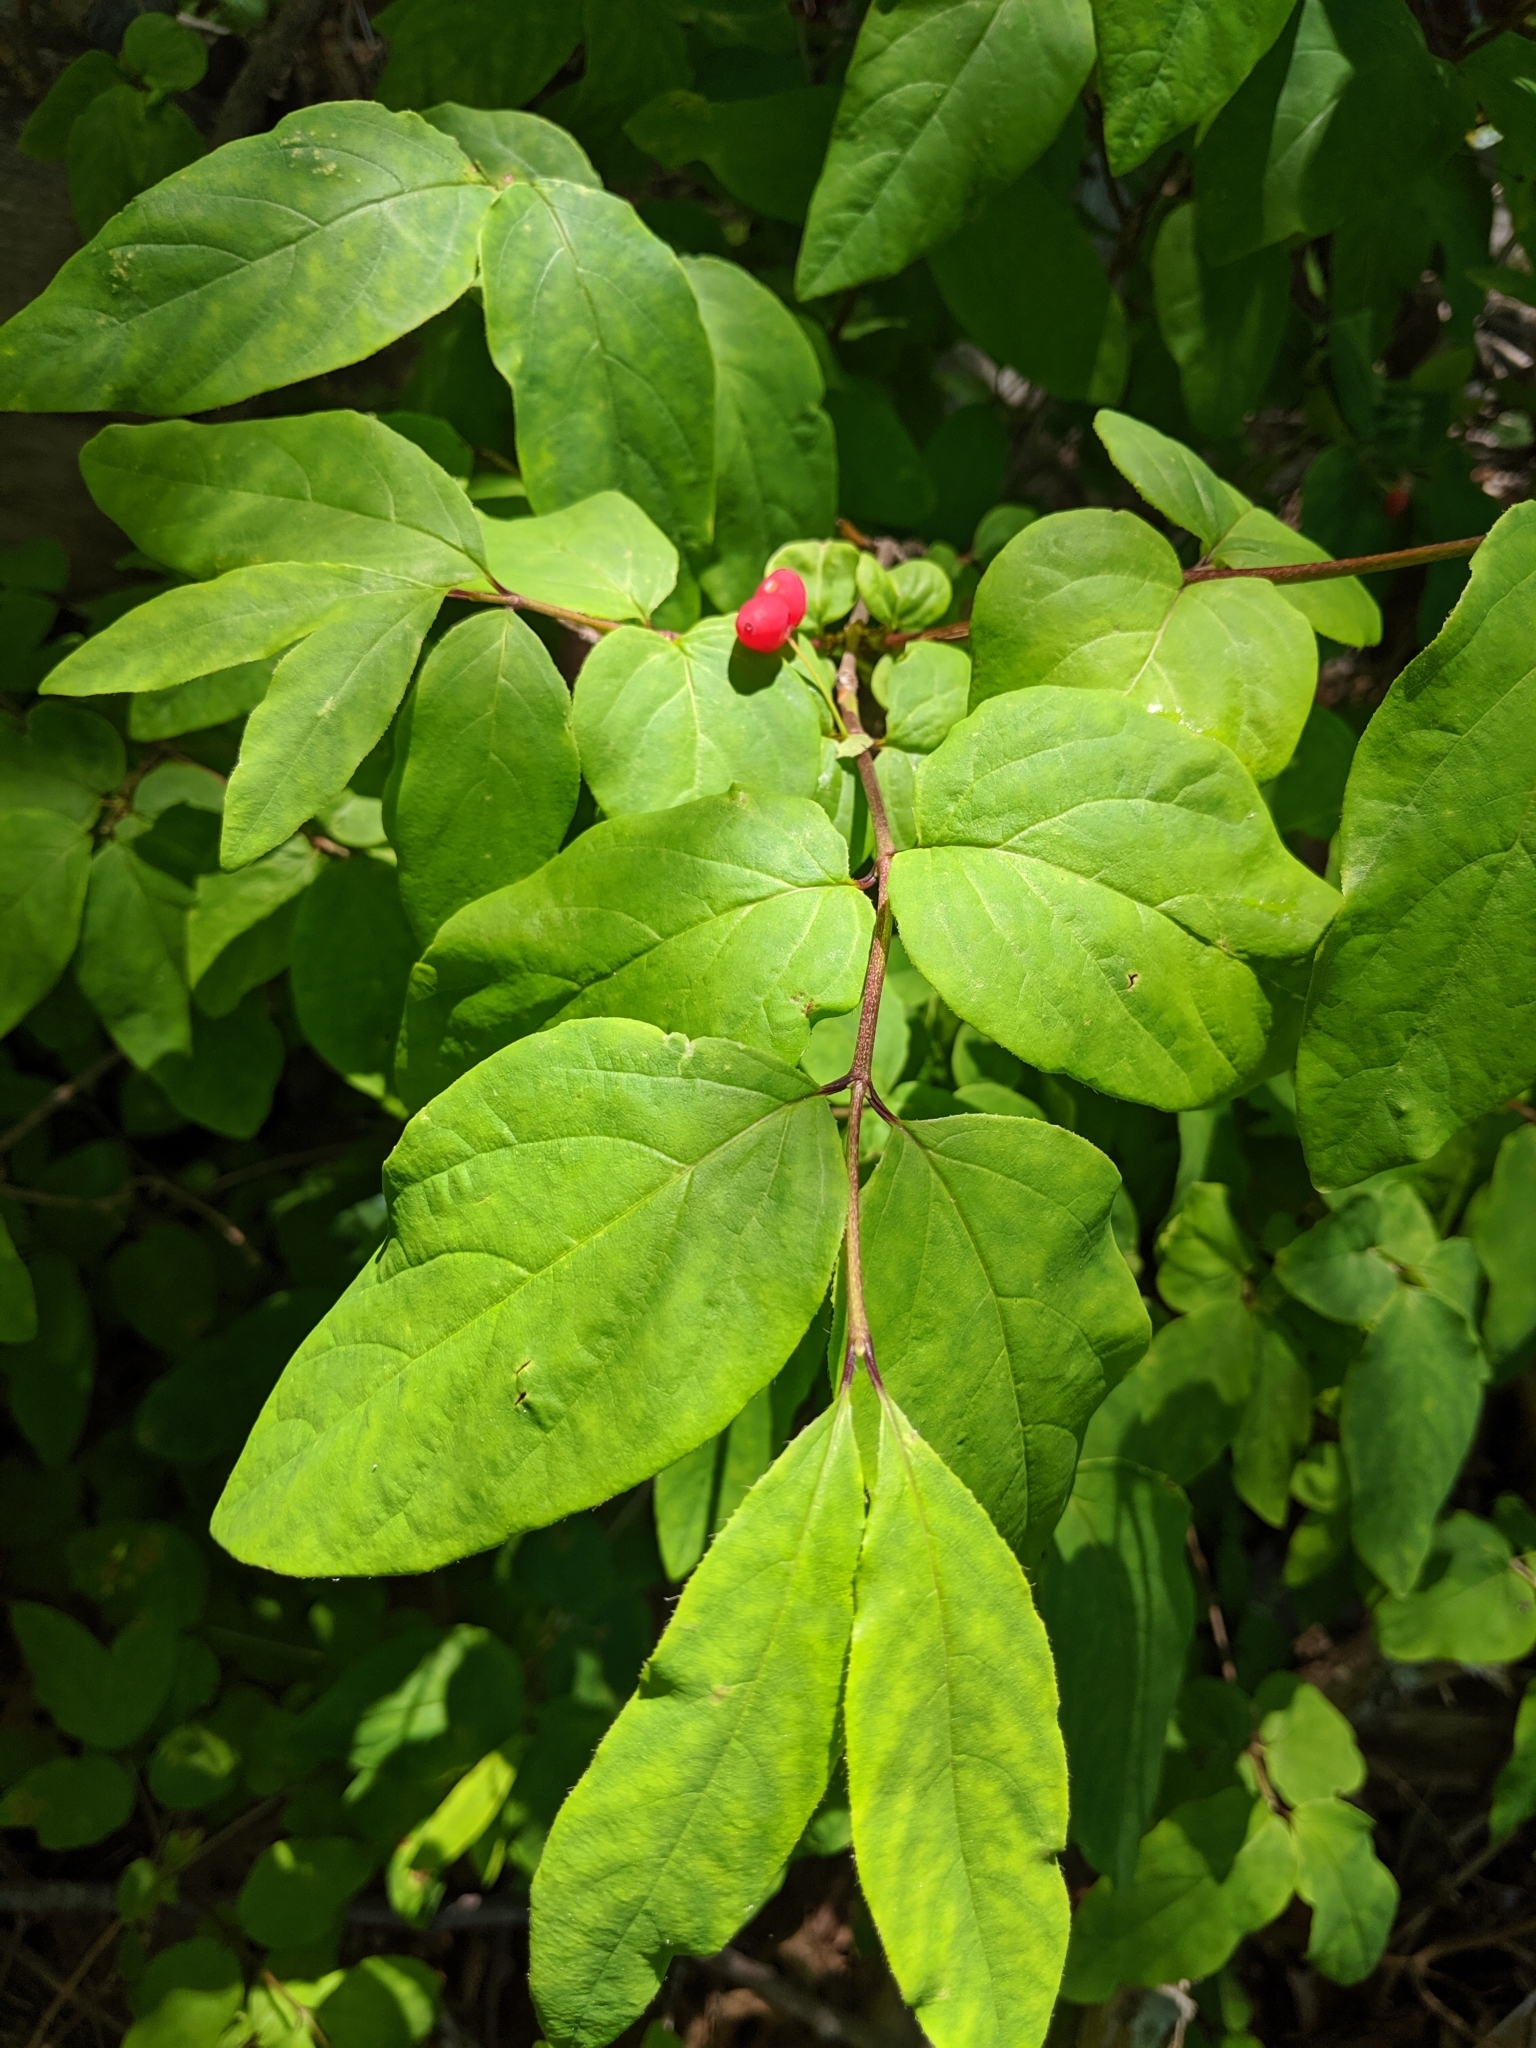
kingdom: Plantae
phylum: Tracheophyta
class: Magnoliopsida
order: Dipsacales
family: Caprifoliaceae
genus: Lonicera
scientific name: Lonicera canadensis
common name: American fly-honeysuckle
